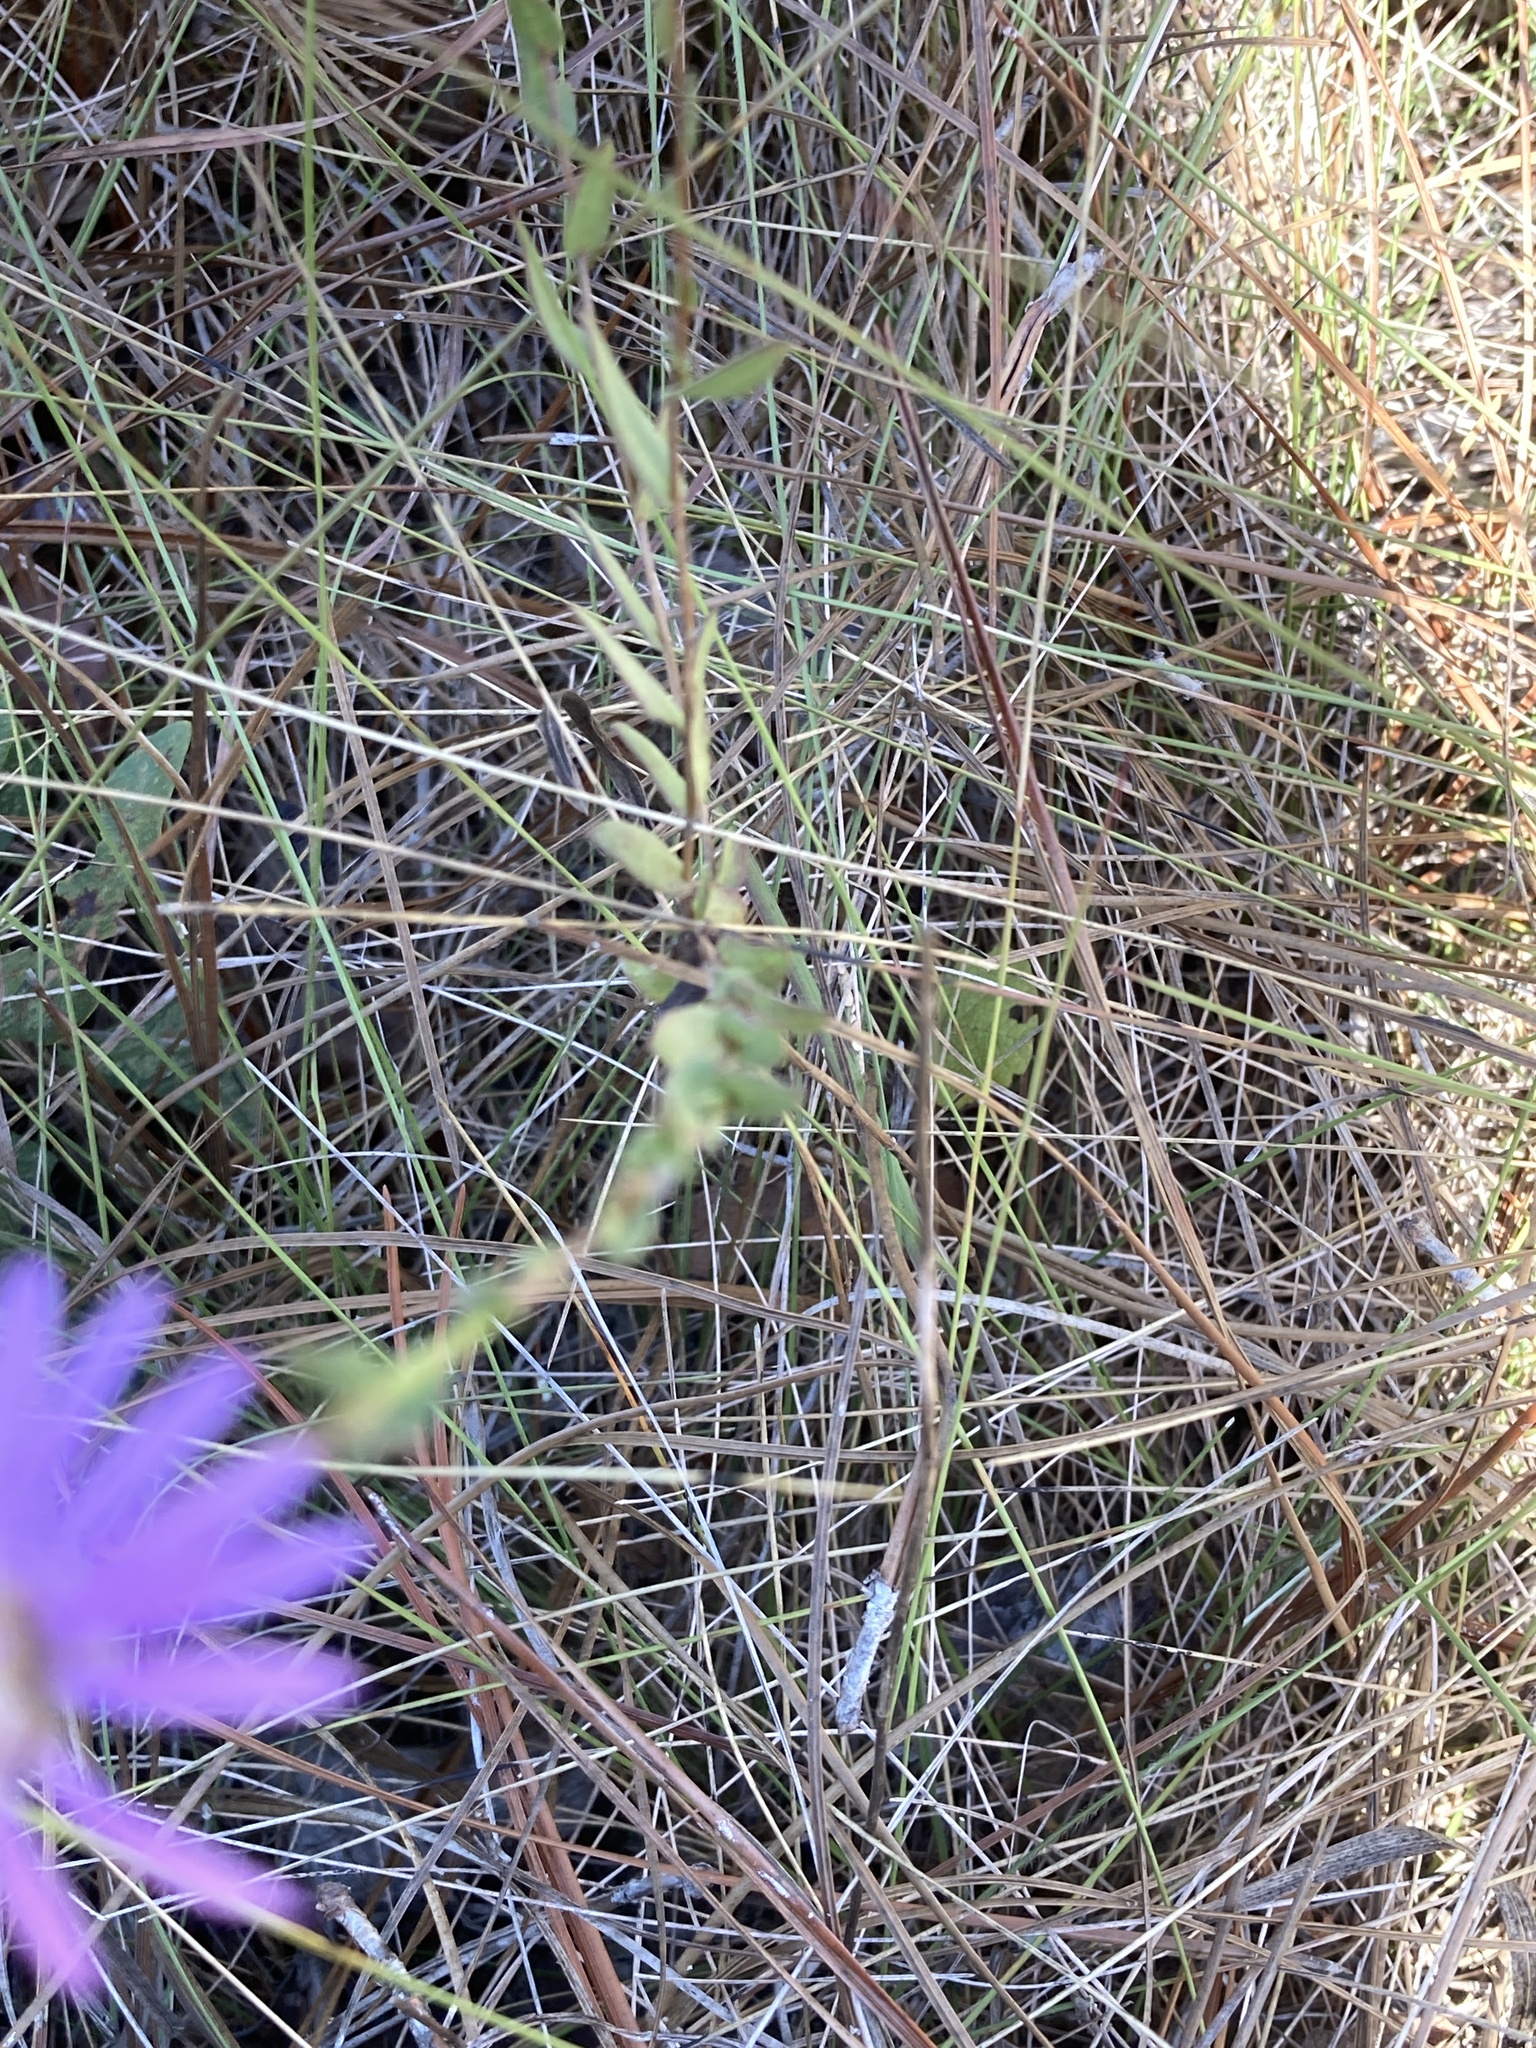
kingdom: Plantae
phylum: Tracheophyta
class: Magnoliopsida
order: Asterales
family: Asteraceae
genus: Symphyotrichum
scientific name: Symphyotrichum concolor
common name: Eastern silver aster
